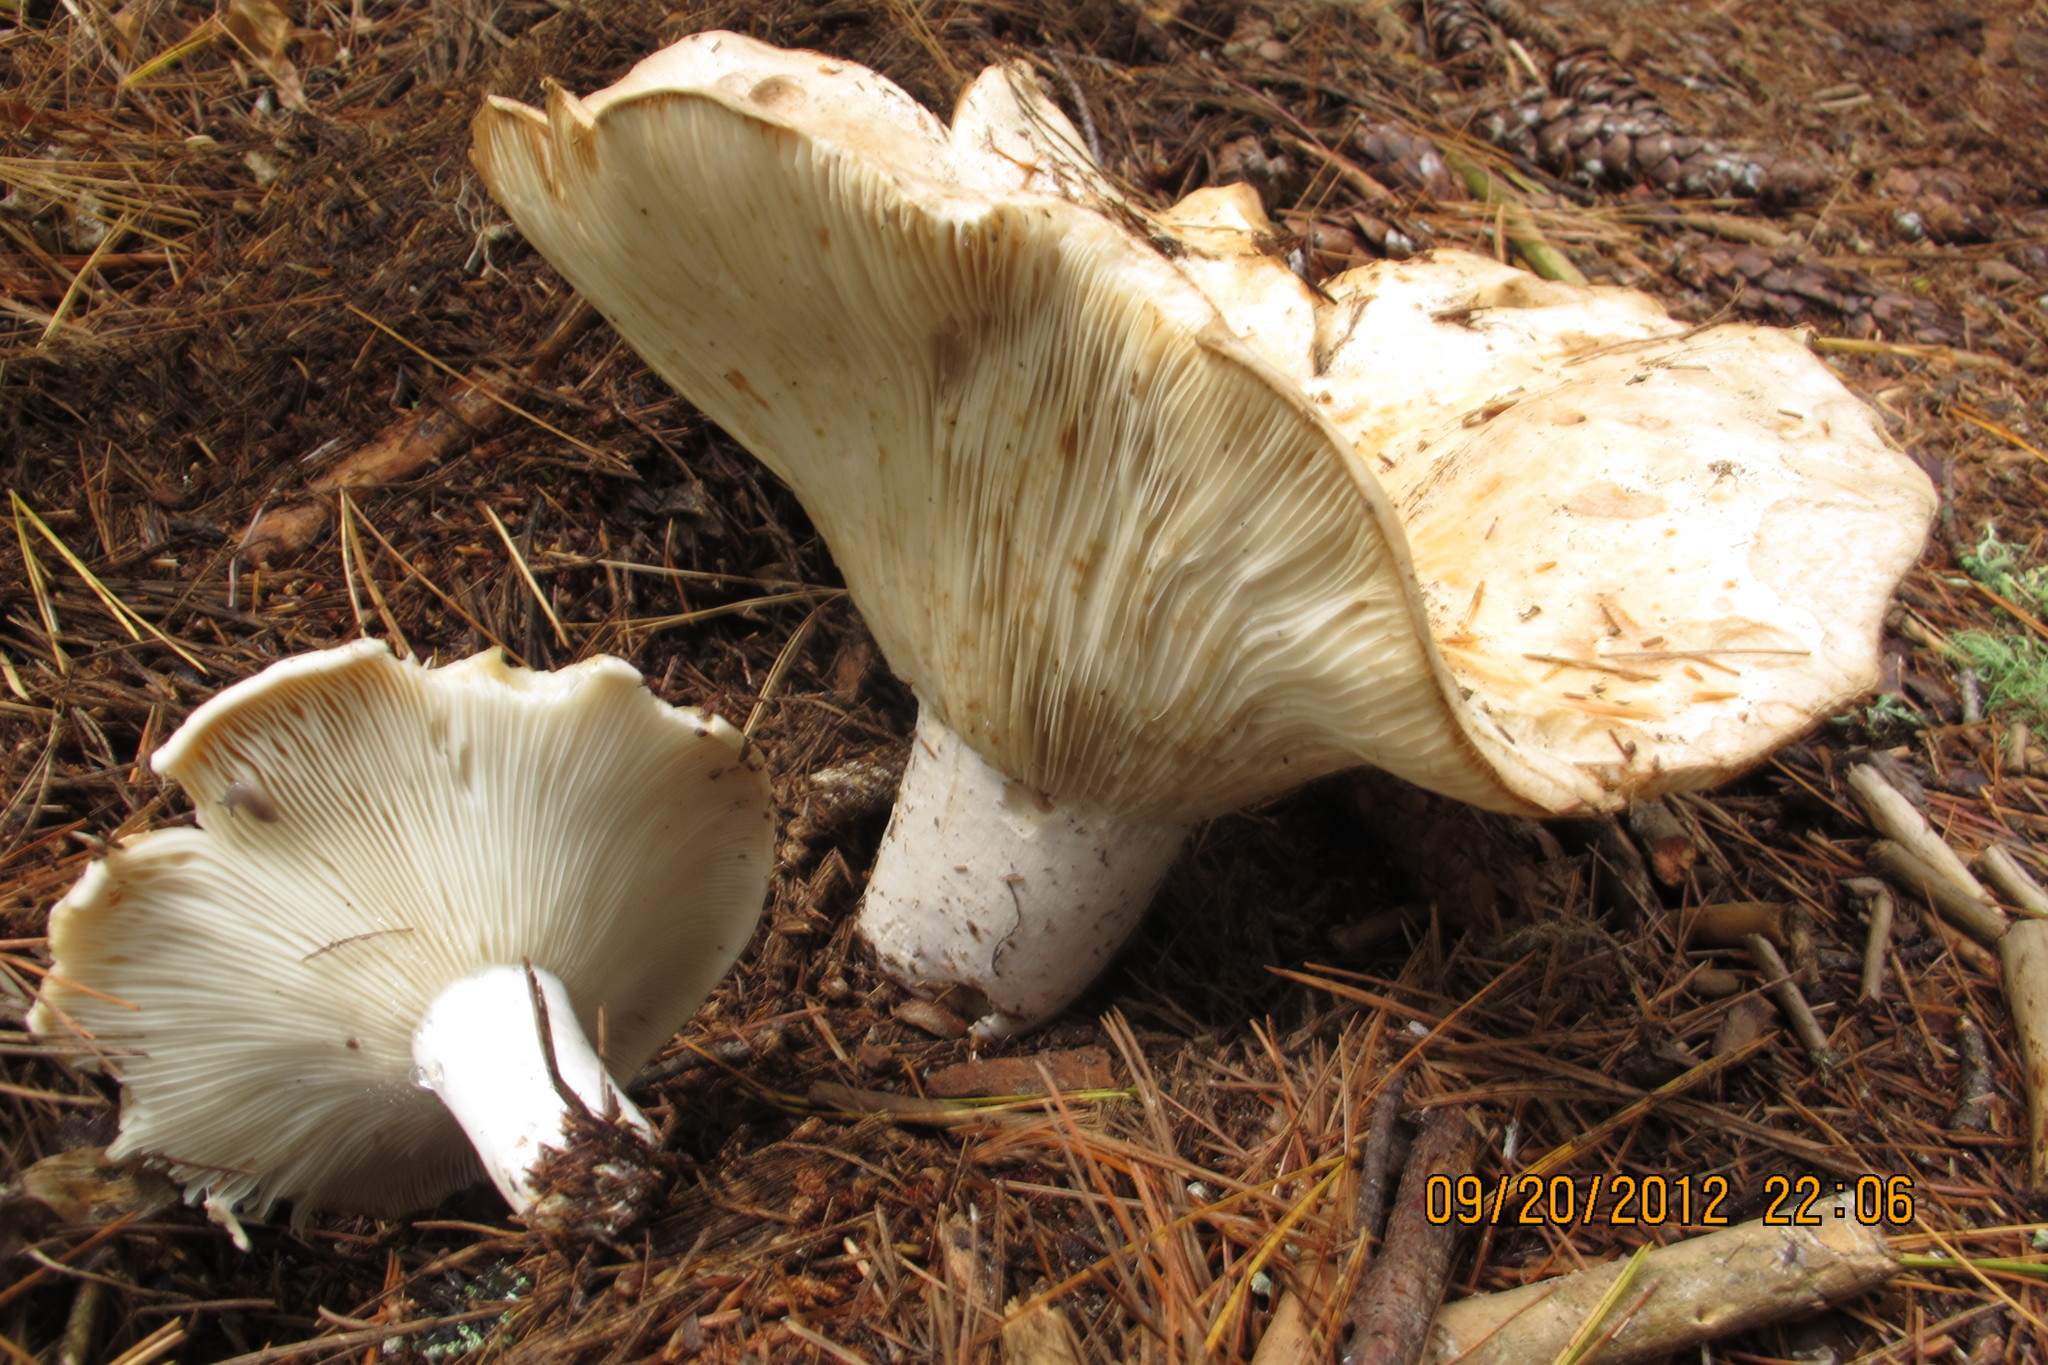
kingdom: Fungi
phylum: Basidiomycota
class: Agaricomycetes
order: Russulales
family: Russulaceae
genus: Russula
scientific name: Russula brevipes
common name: Short-stemmed russula
